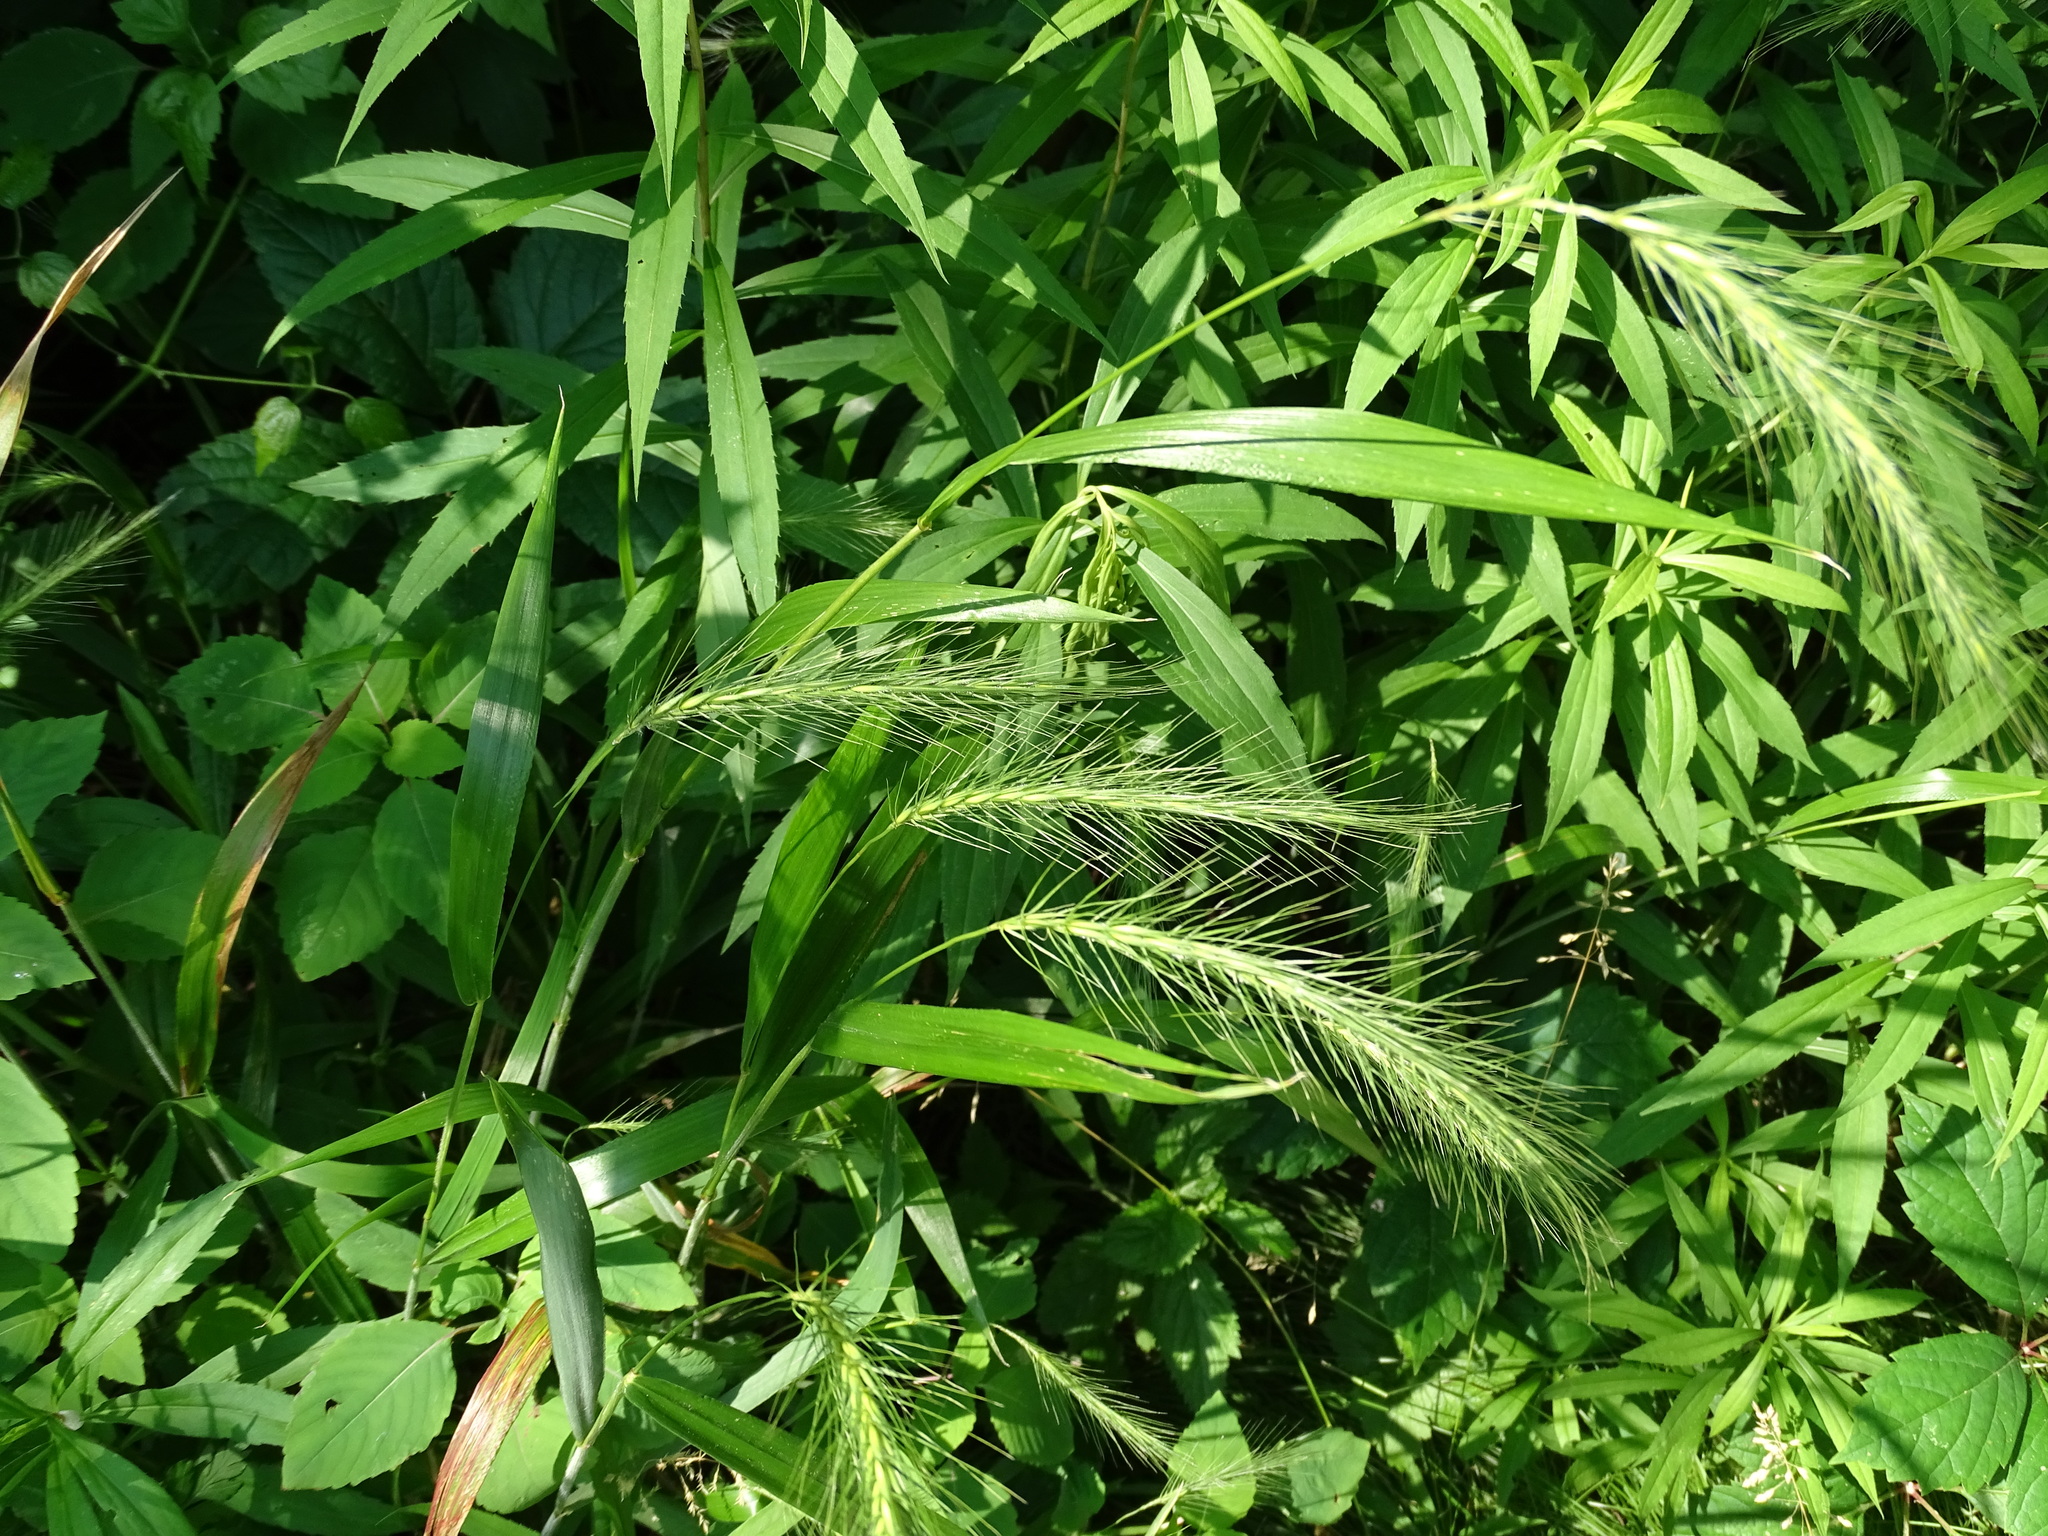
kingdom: Plantae
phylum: Tracheophyta
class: Liliopsida
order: Poales
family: Poaceae
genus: Elymus
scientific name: Elymus villosus
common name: Downy wild rye
